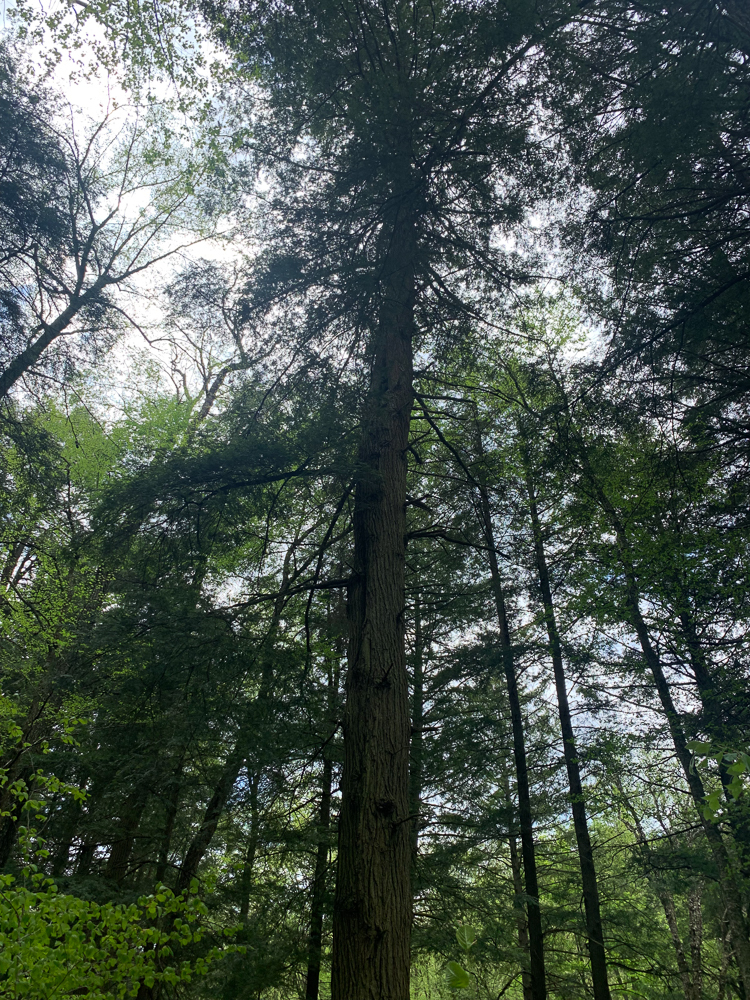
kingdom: Plantae
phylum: Tracheophyta
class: Pinopsida
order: Pinales
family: Pinaceae
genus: Tsuga
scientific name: Tsuga canadensis
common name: Eastern hemlock
